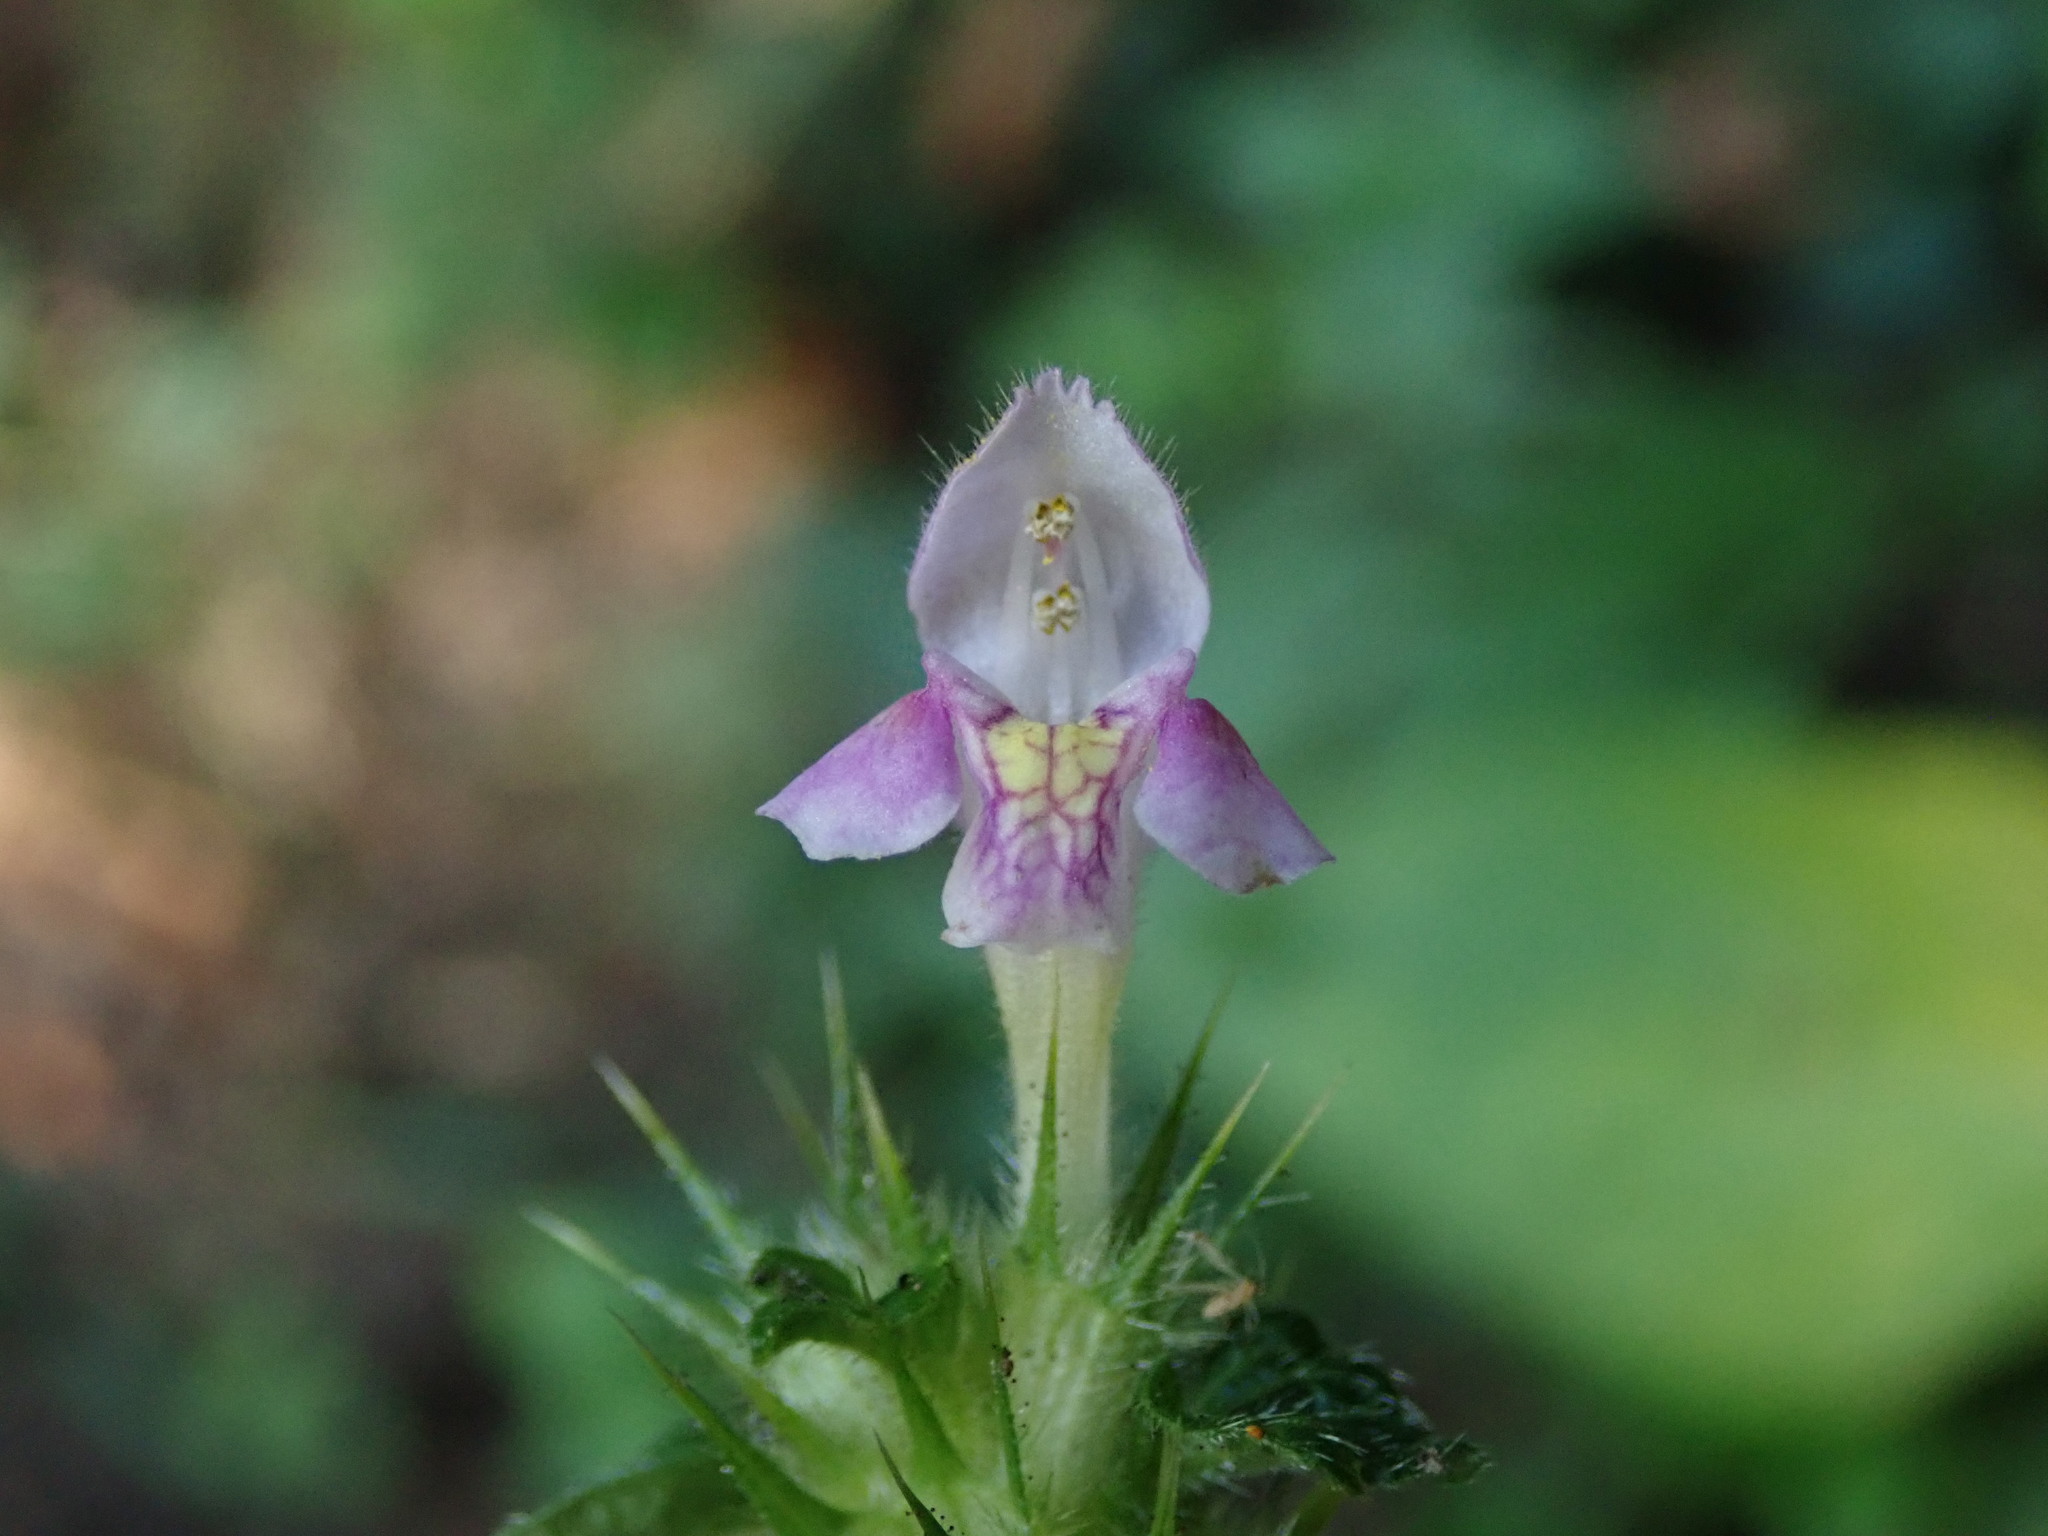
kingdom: Plantae
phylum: Tracheophyta
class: Magnoliopsida
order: Lamiales
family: Lamiaceae
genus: Galeopsis
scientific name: Galeopsis tetrahit
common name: Common hemp-nettle
